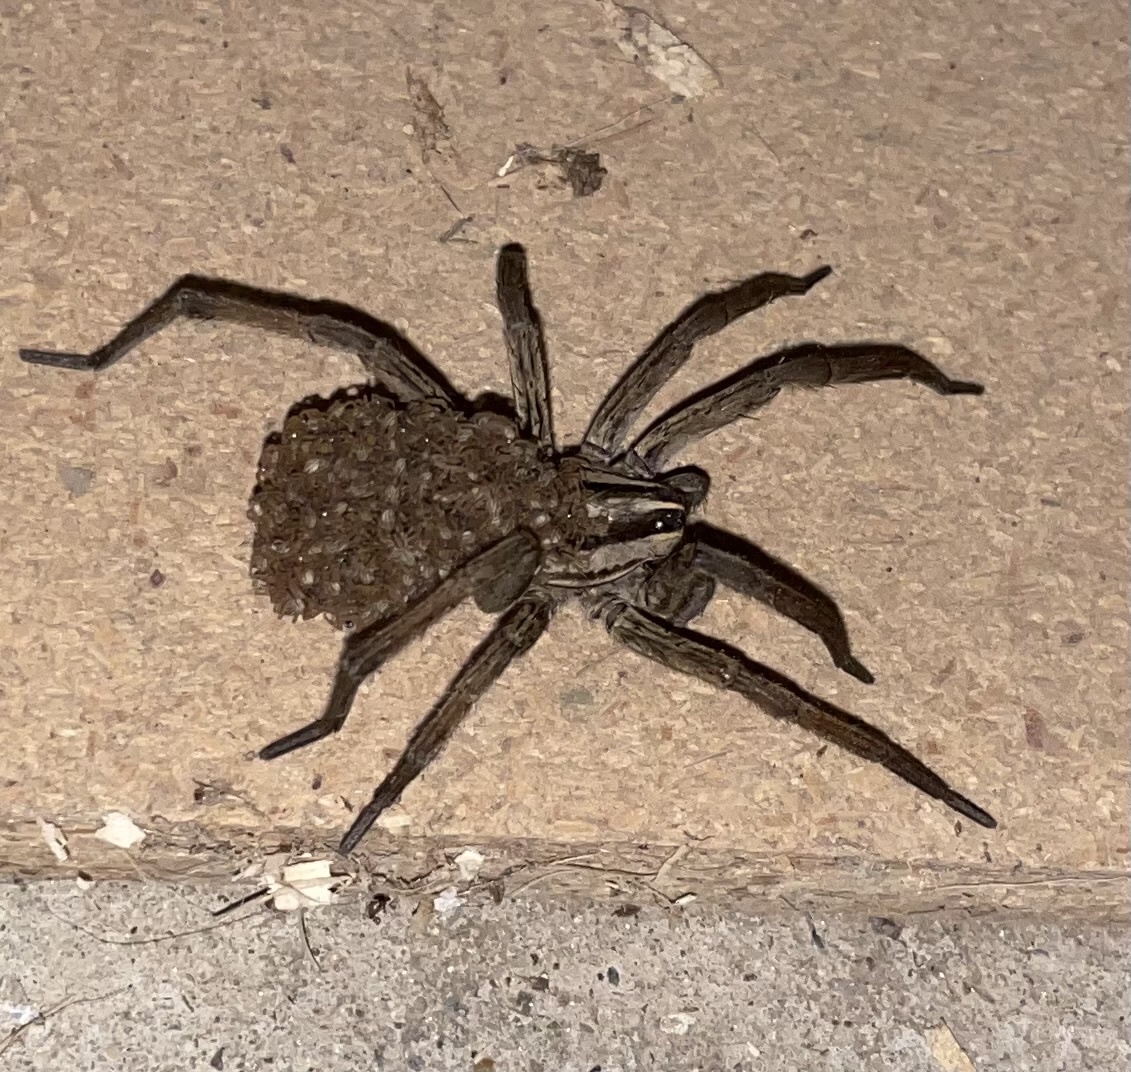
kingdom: Animalia
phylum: Arthropoda
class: Arachnida
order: Araneae
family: Lycosidae
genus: Rabidosa
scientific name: Rabidosa
